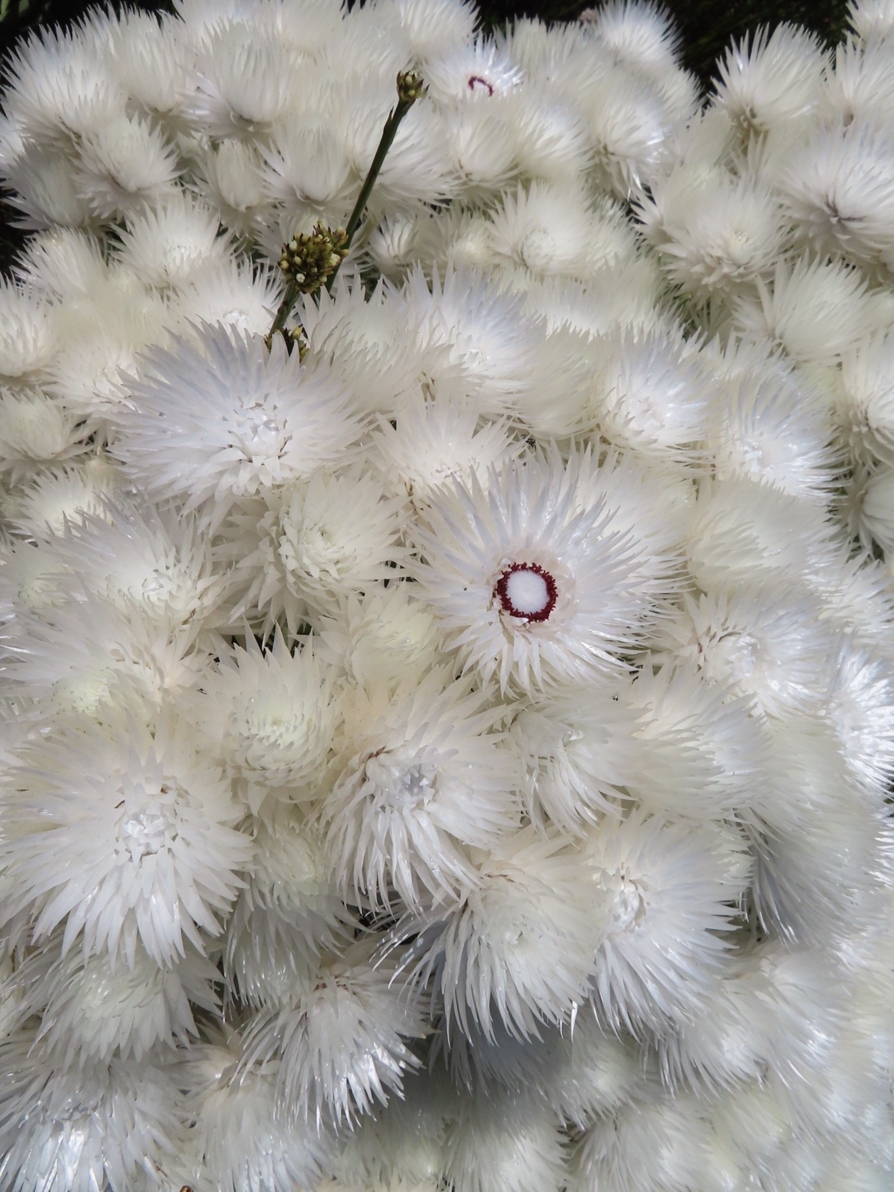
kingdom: Plantae
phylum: Tracheophyta
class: Magnoliopsida
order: Asterales
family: Asteraceae
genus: Syncarpha
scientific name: Syncarpha vestita
